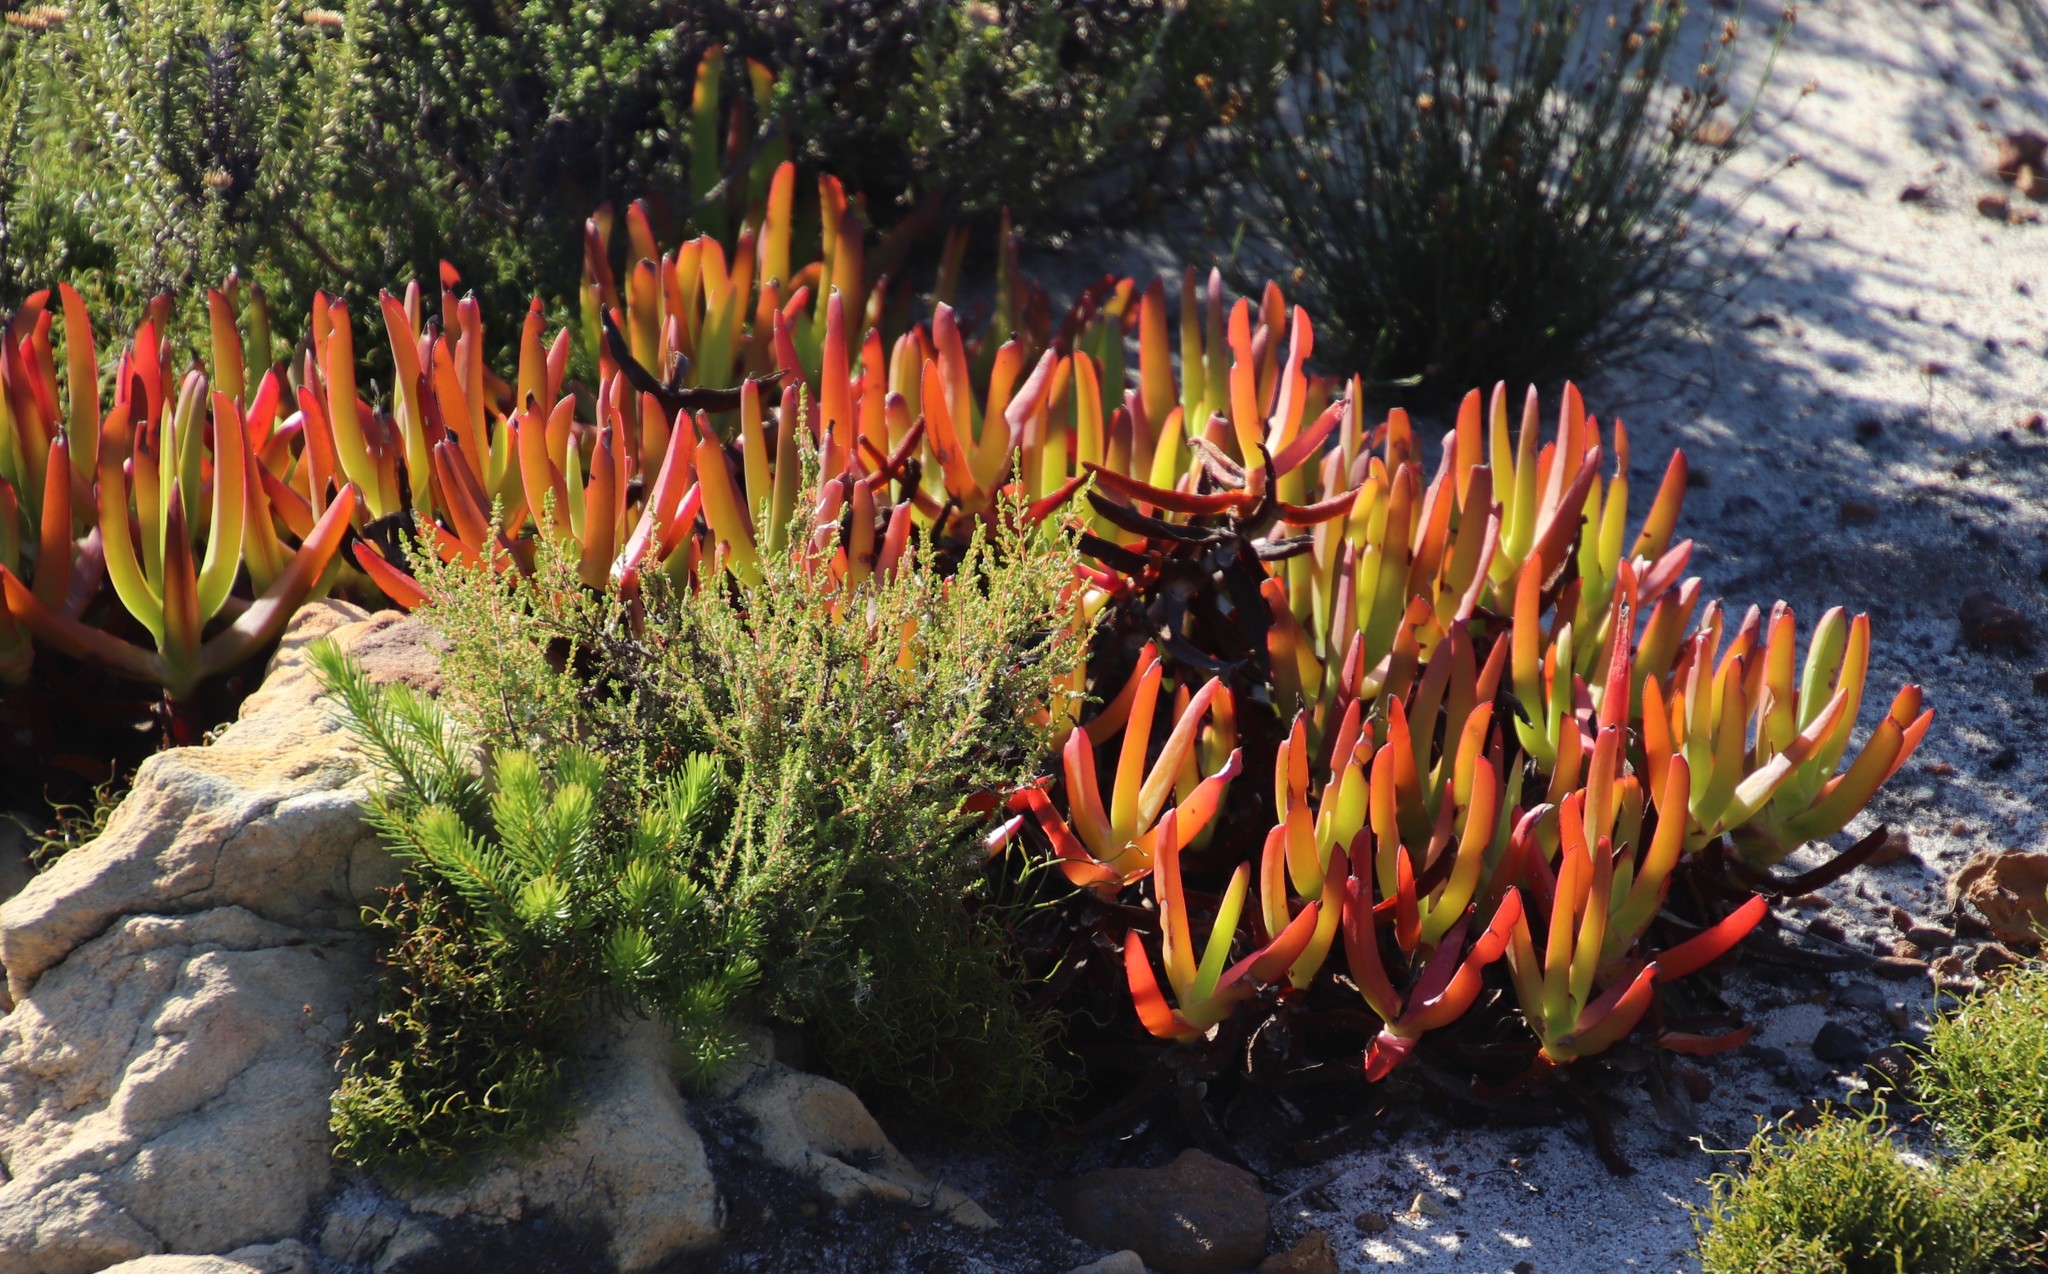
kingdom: Plantae
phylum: Tracheophyta
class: Magnoliopsida
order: Caryophyllales
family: Aizoaceae
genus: Carpobrotus
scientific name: Carpobrotus edulis
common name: Hottentot-fig
